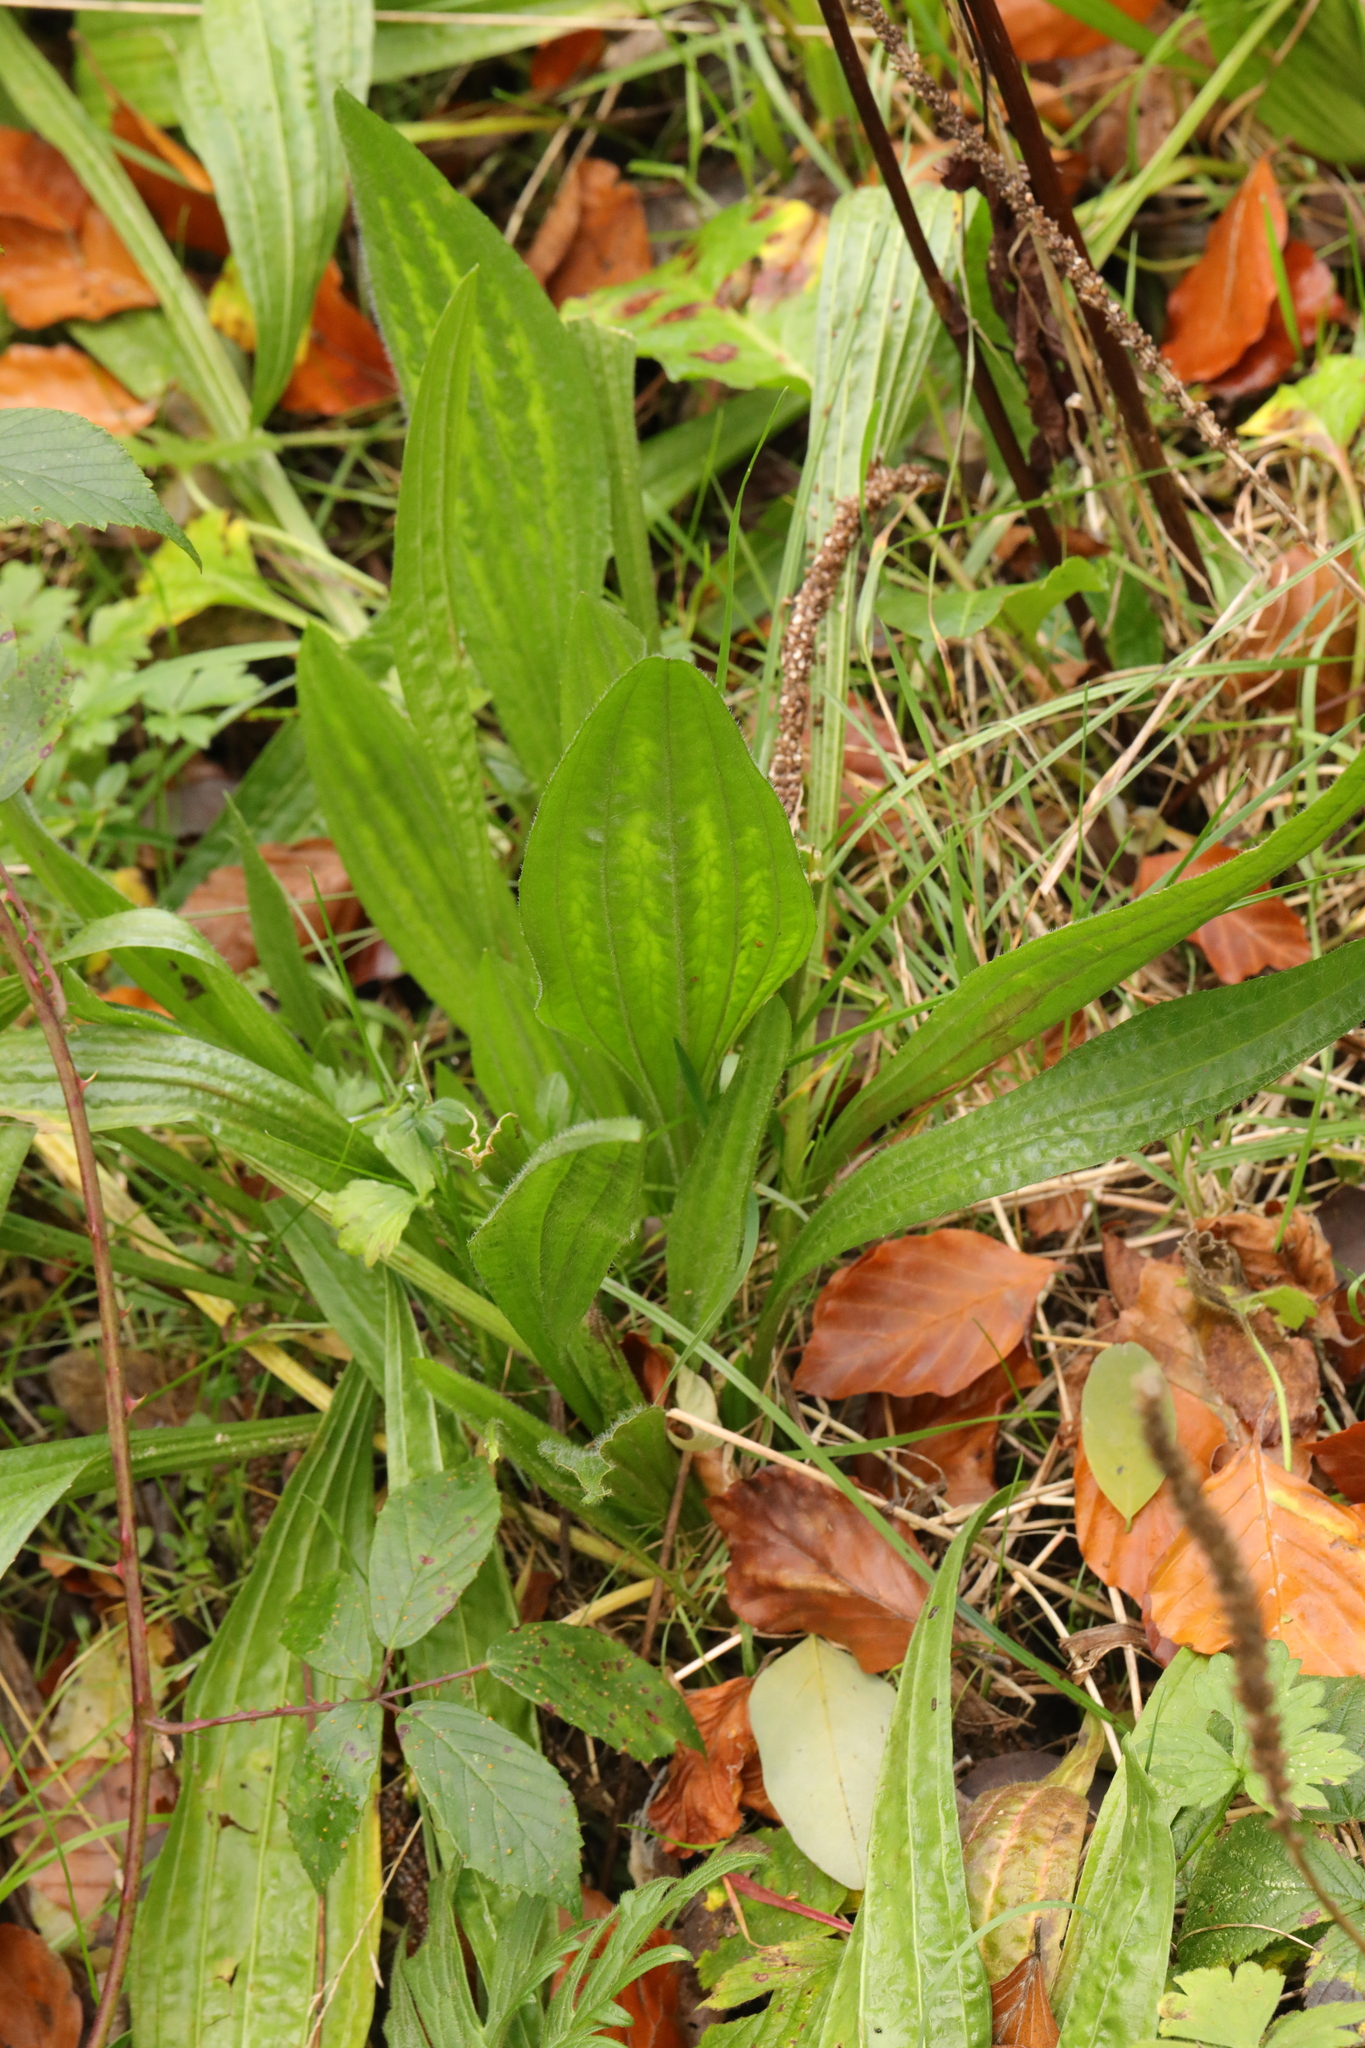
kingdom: Plantae
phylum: Tracheophyta
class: Magnoliopsida
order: Lamiales
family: Plantaginaceae
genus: Plantago
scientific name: Plantago lanceolata
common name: Ribwort plantain
